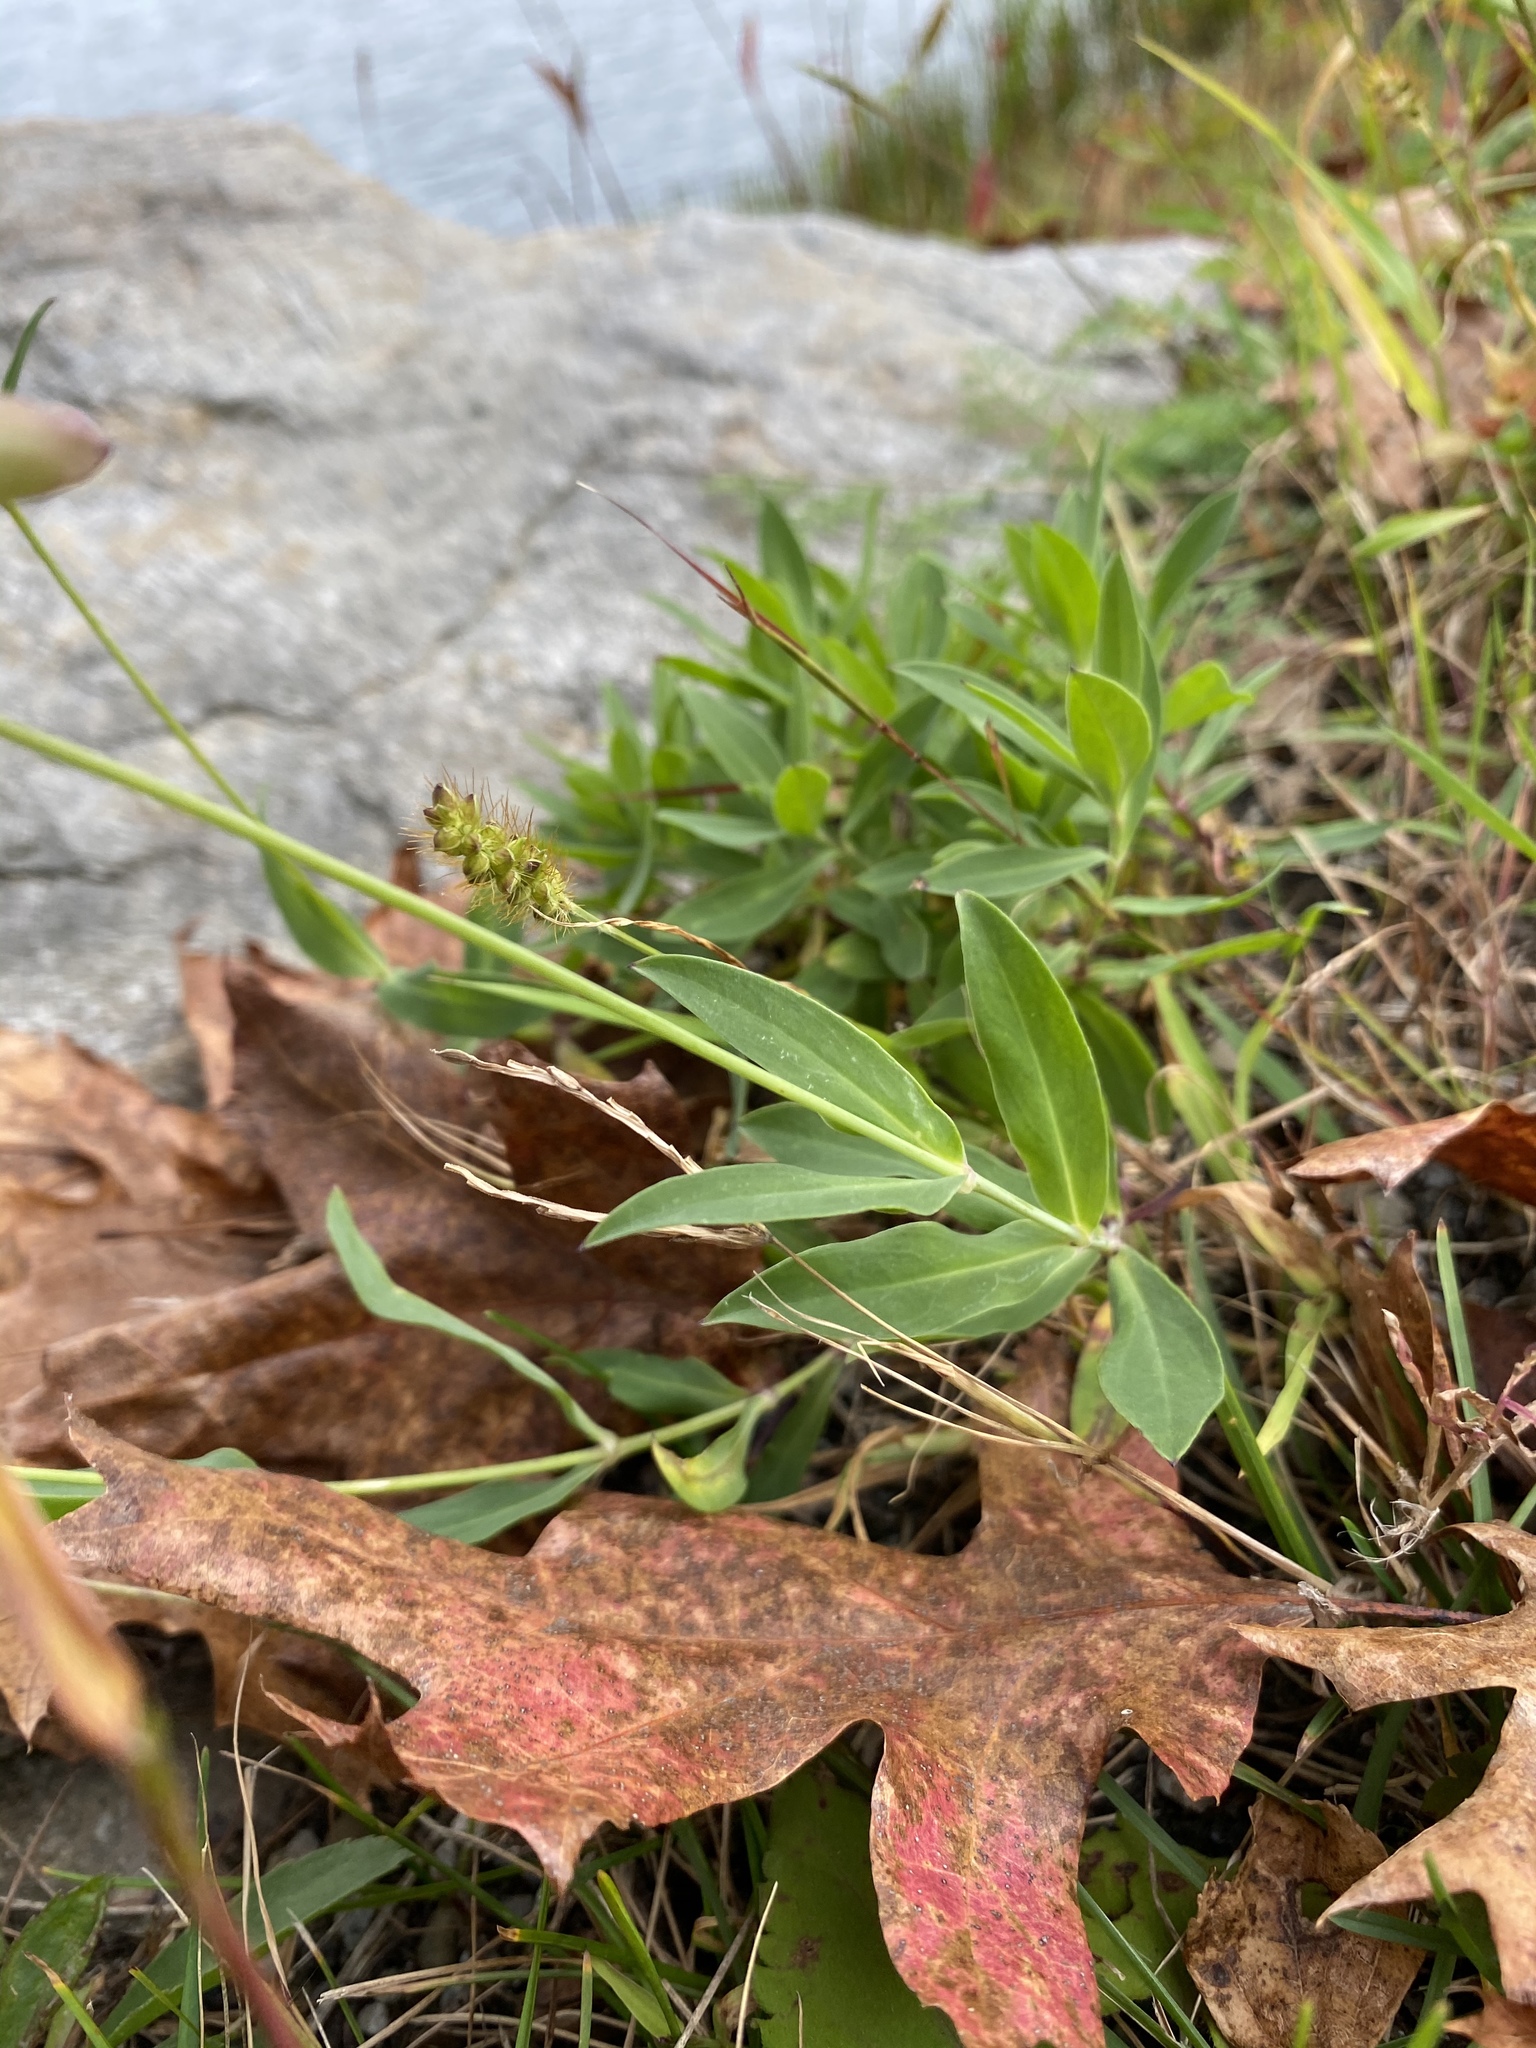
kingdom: Plantae
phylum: Tracheophyta
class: Magnoliopsida
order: Caryophyllales
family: Caryophyllaceae
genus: Silene
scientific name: Silene vulgaris
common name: Bladder campion
